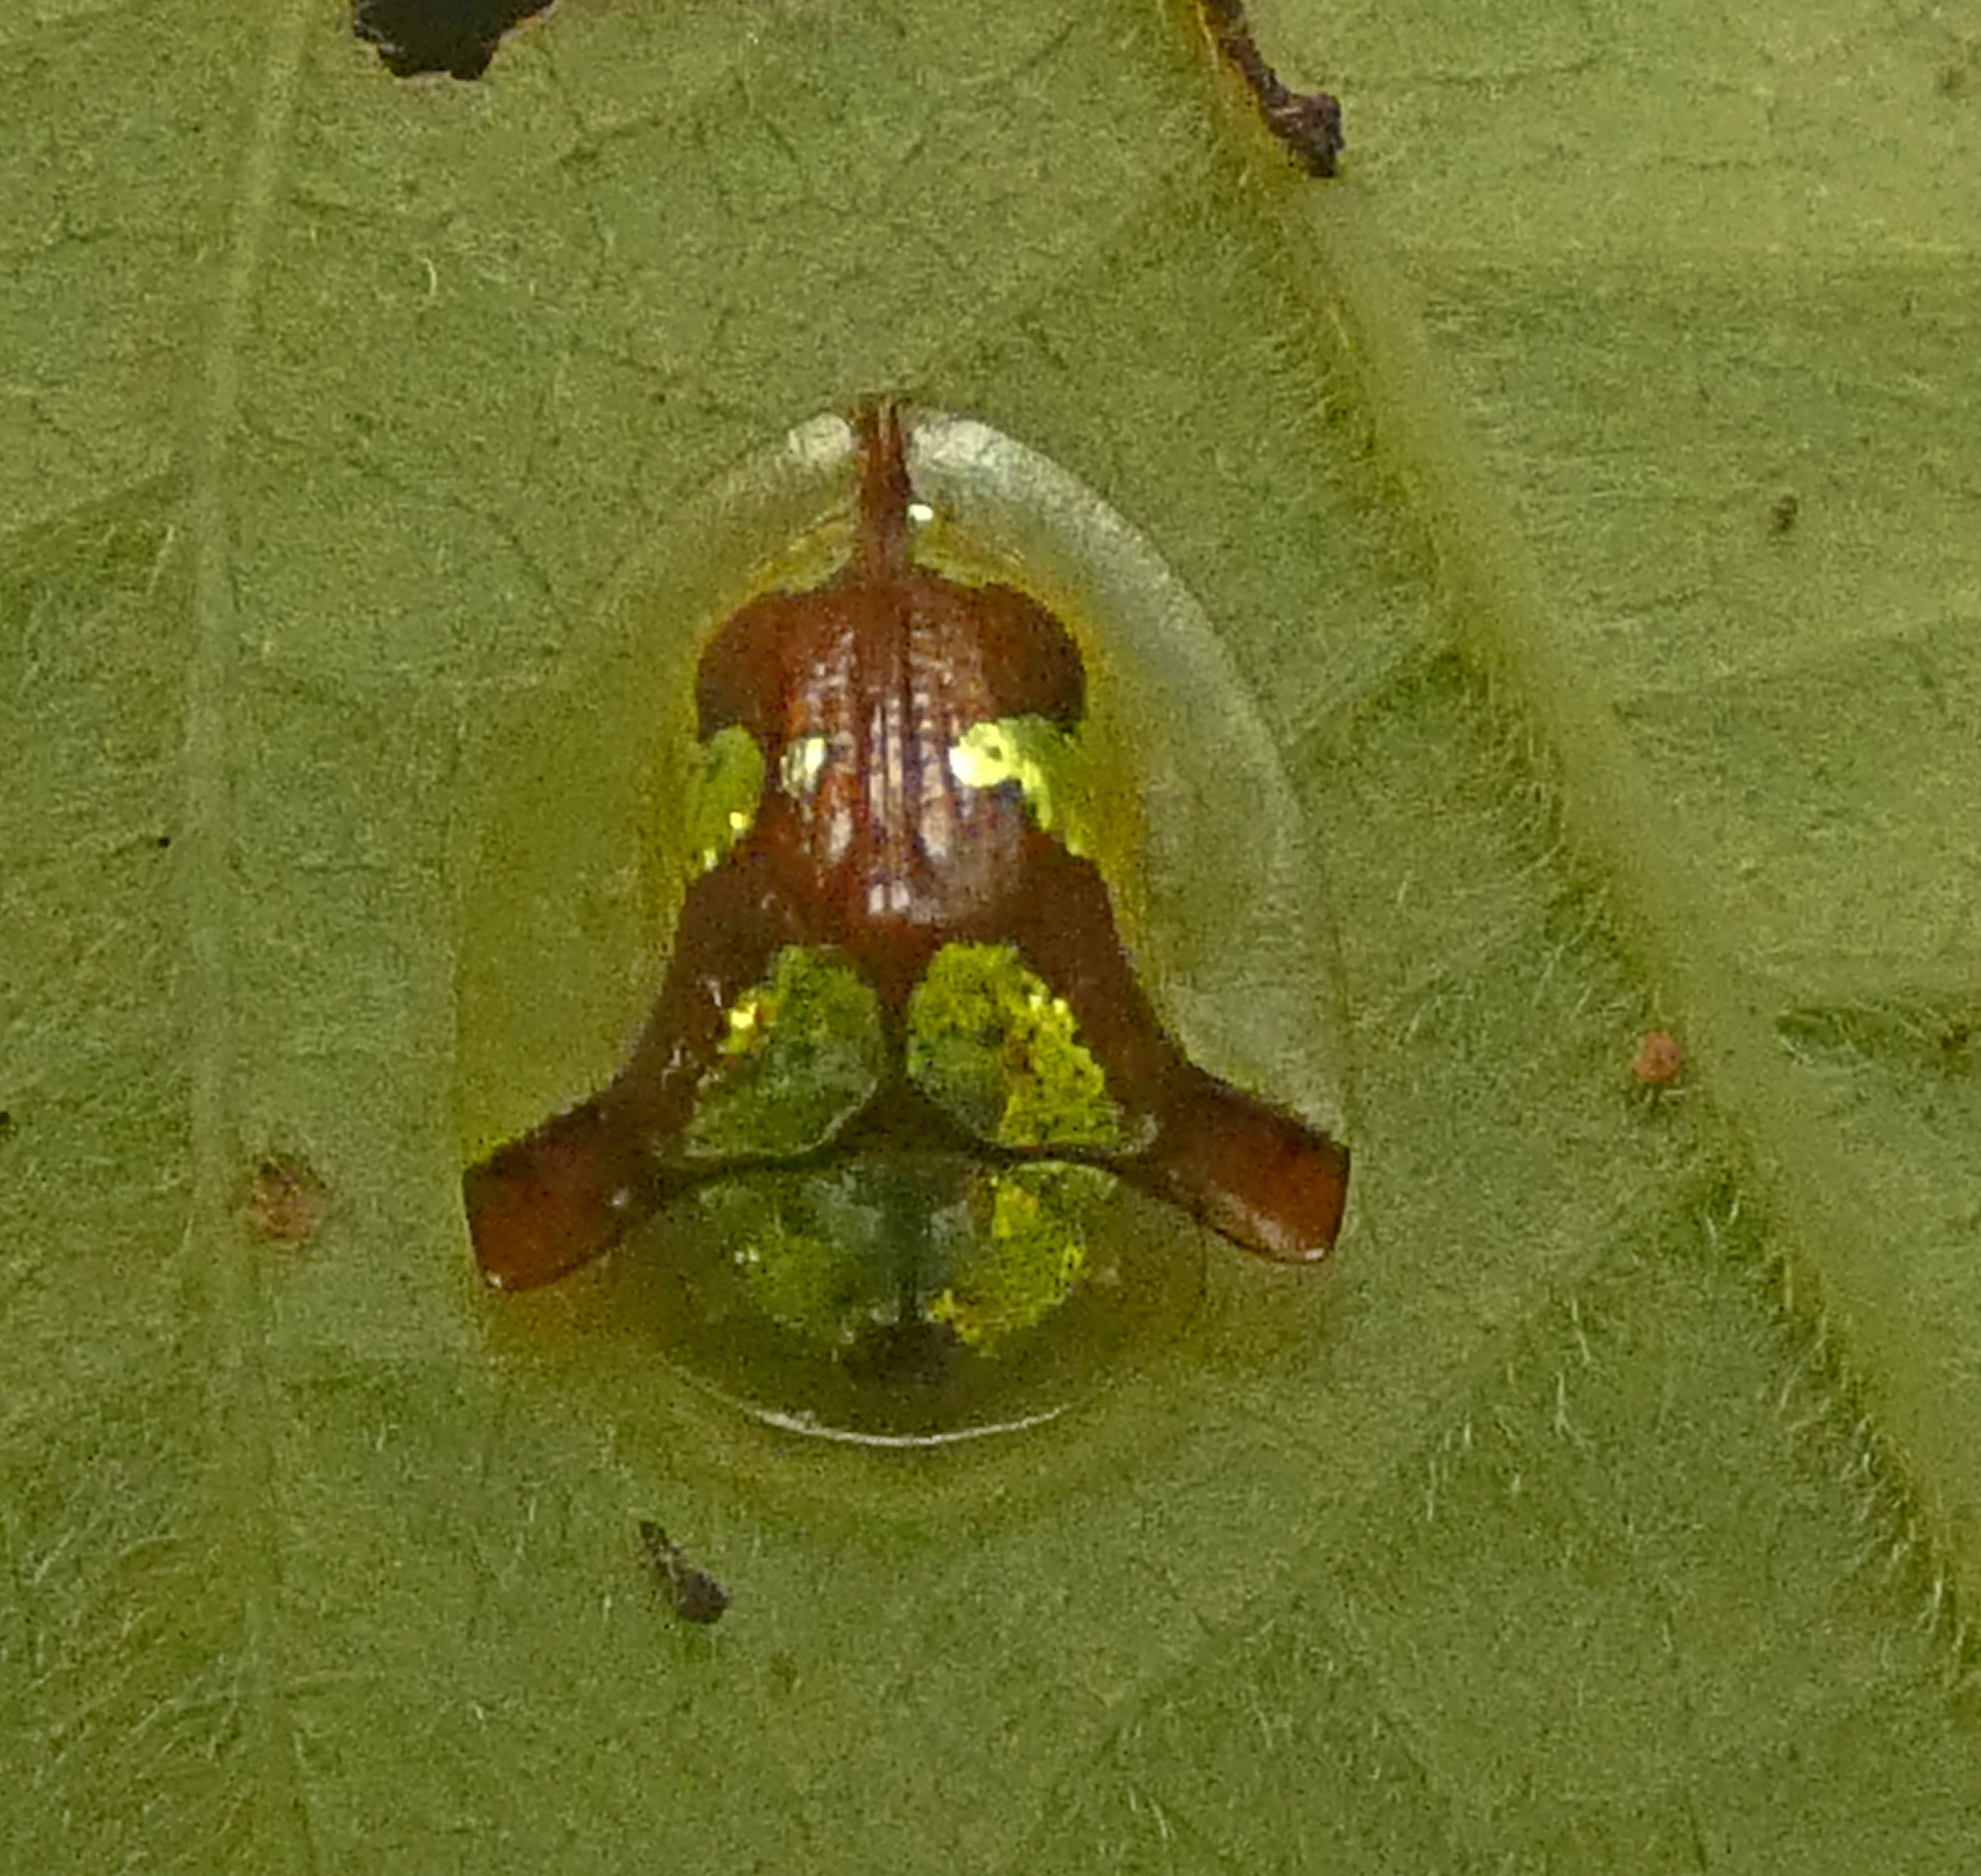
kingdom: Animalia
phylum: Arthropoda
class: Insecta
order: Coleoptera
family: Chrysomelidae
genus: Deloyala
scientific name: Deloyala cruciata
